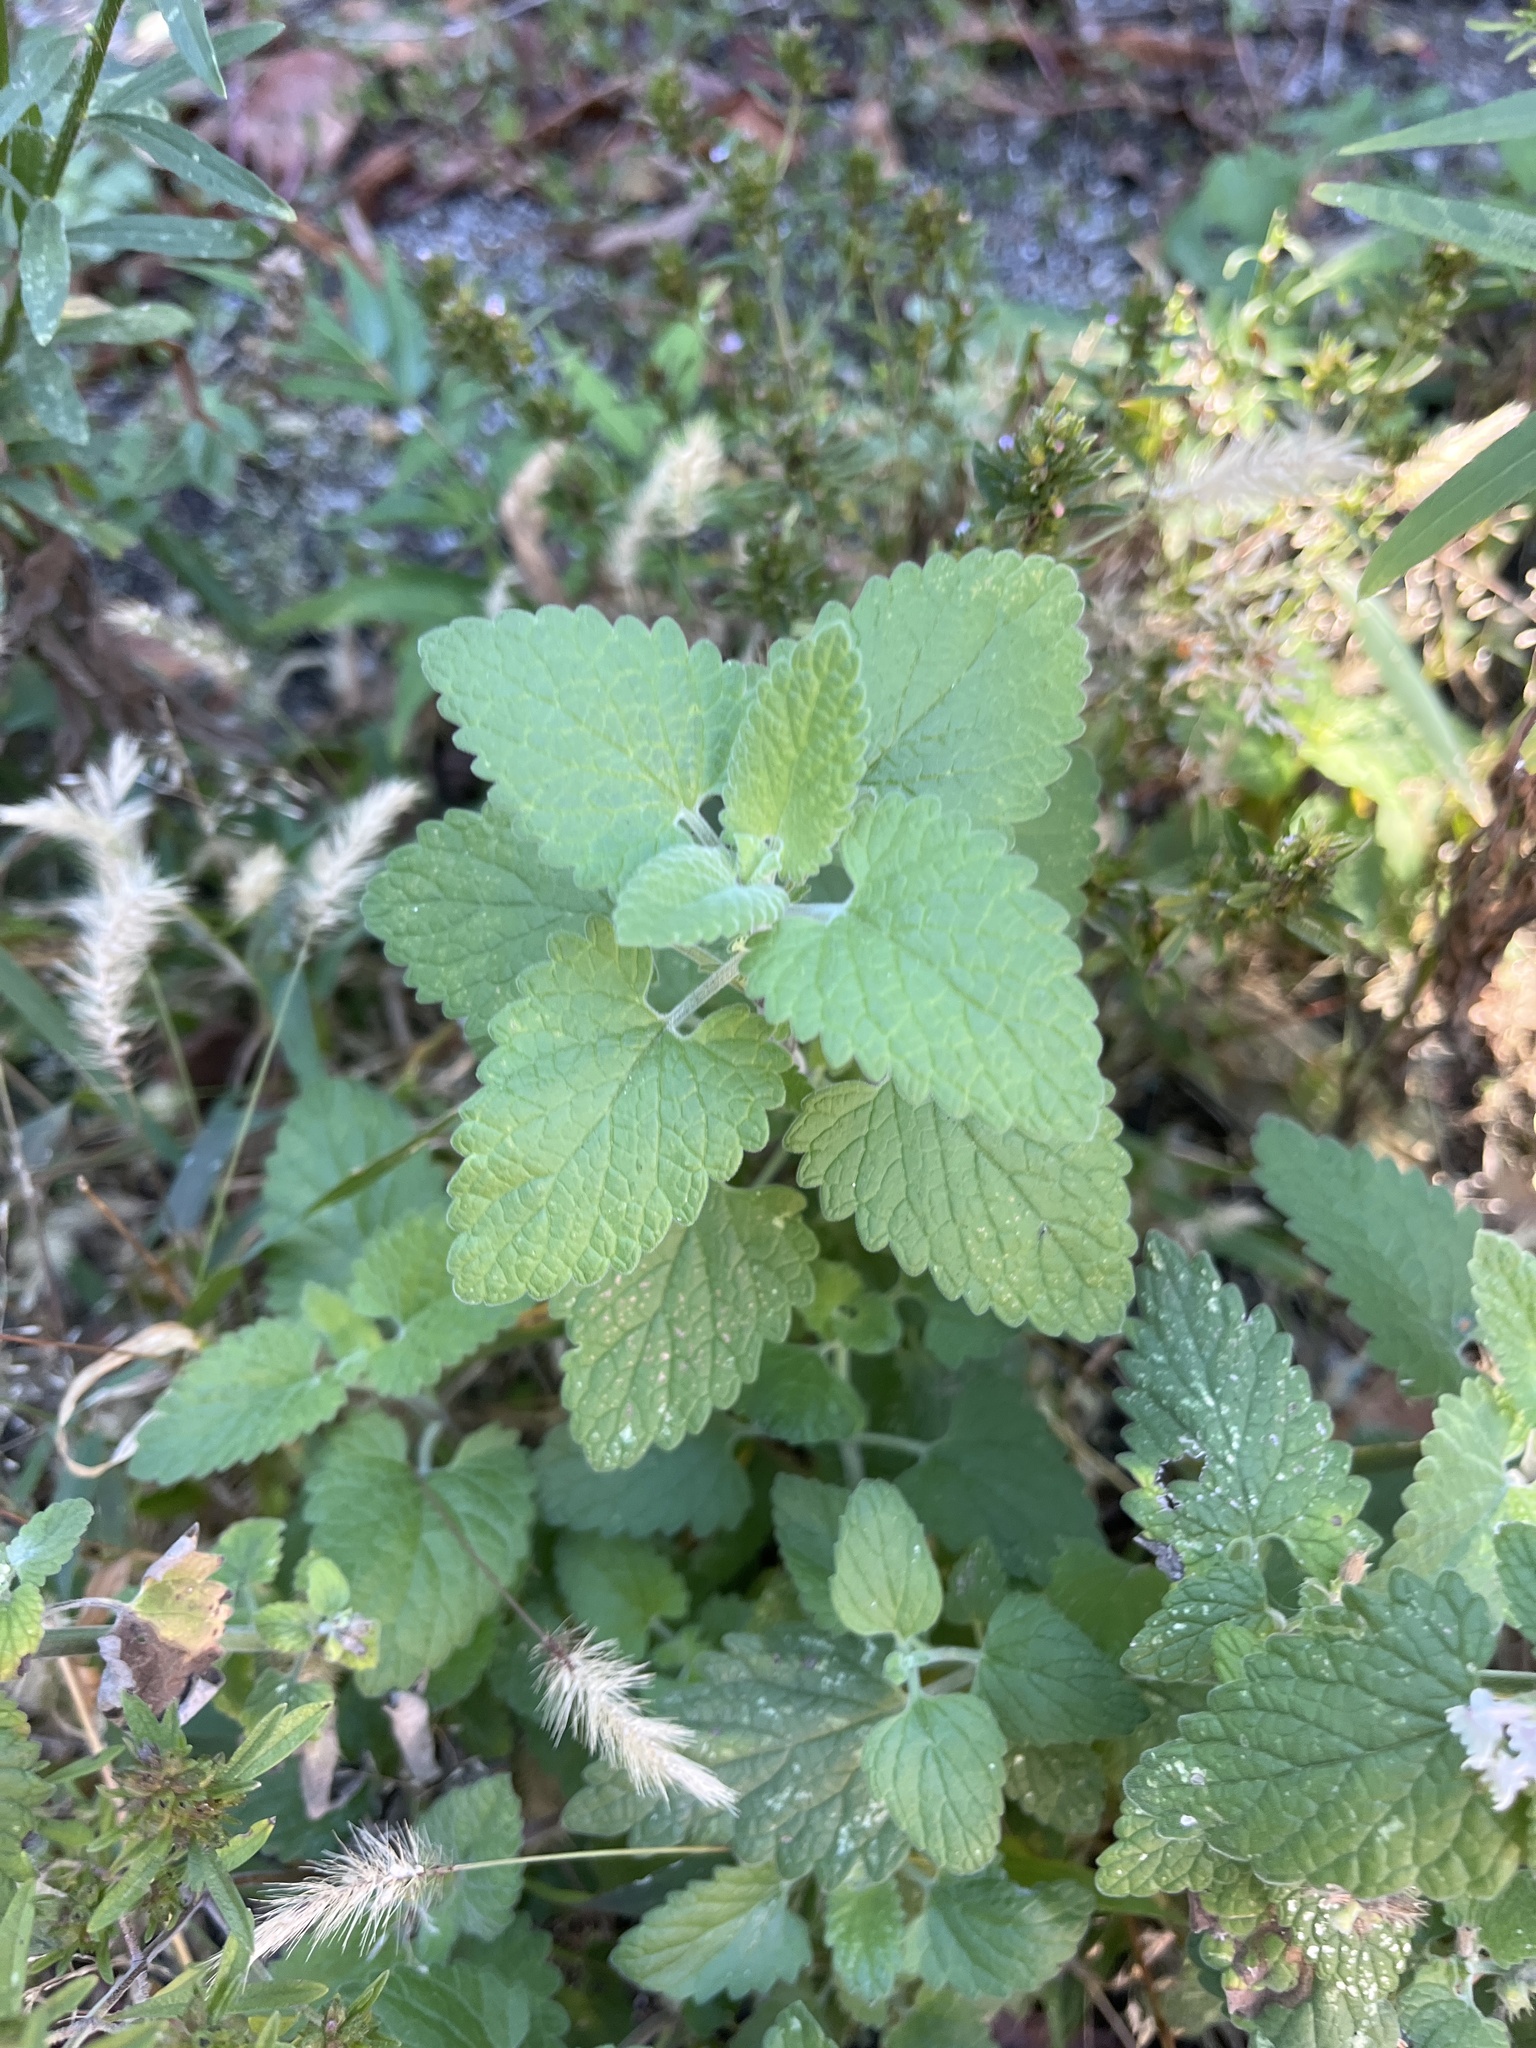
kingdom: Plantae
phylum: Tracheophyta
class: Magnoliopsida
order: Lamiales
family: Lamiaceae
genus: Nepeta
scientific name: Nepeta cataria
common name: Catnip
